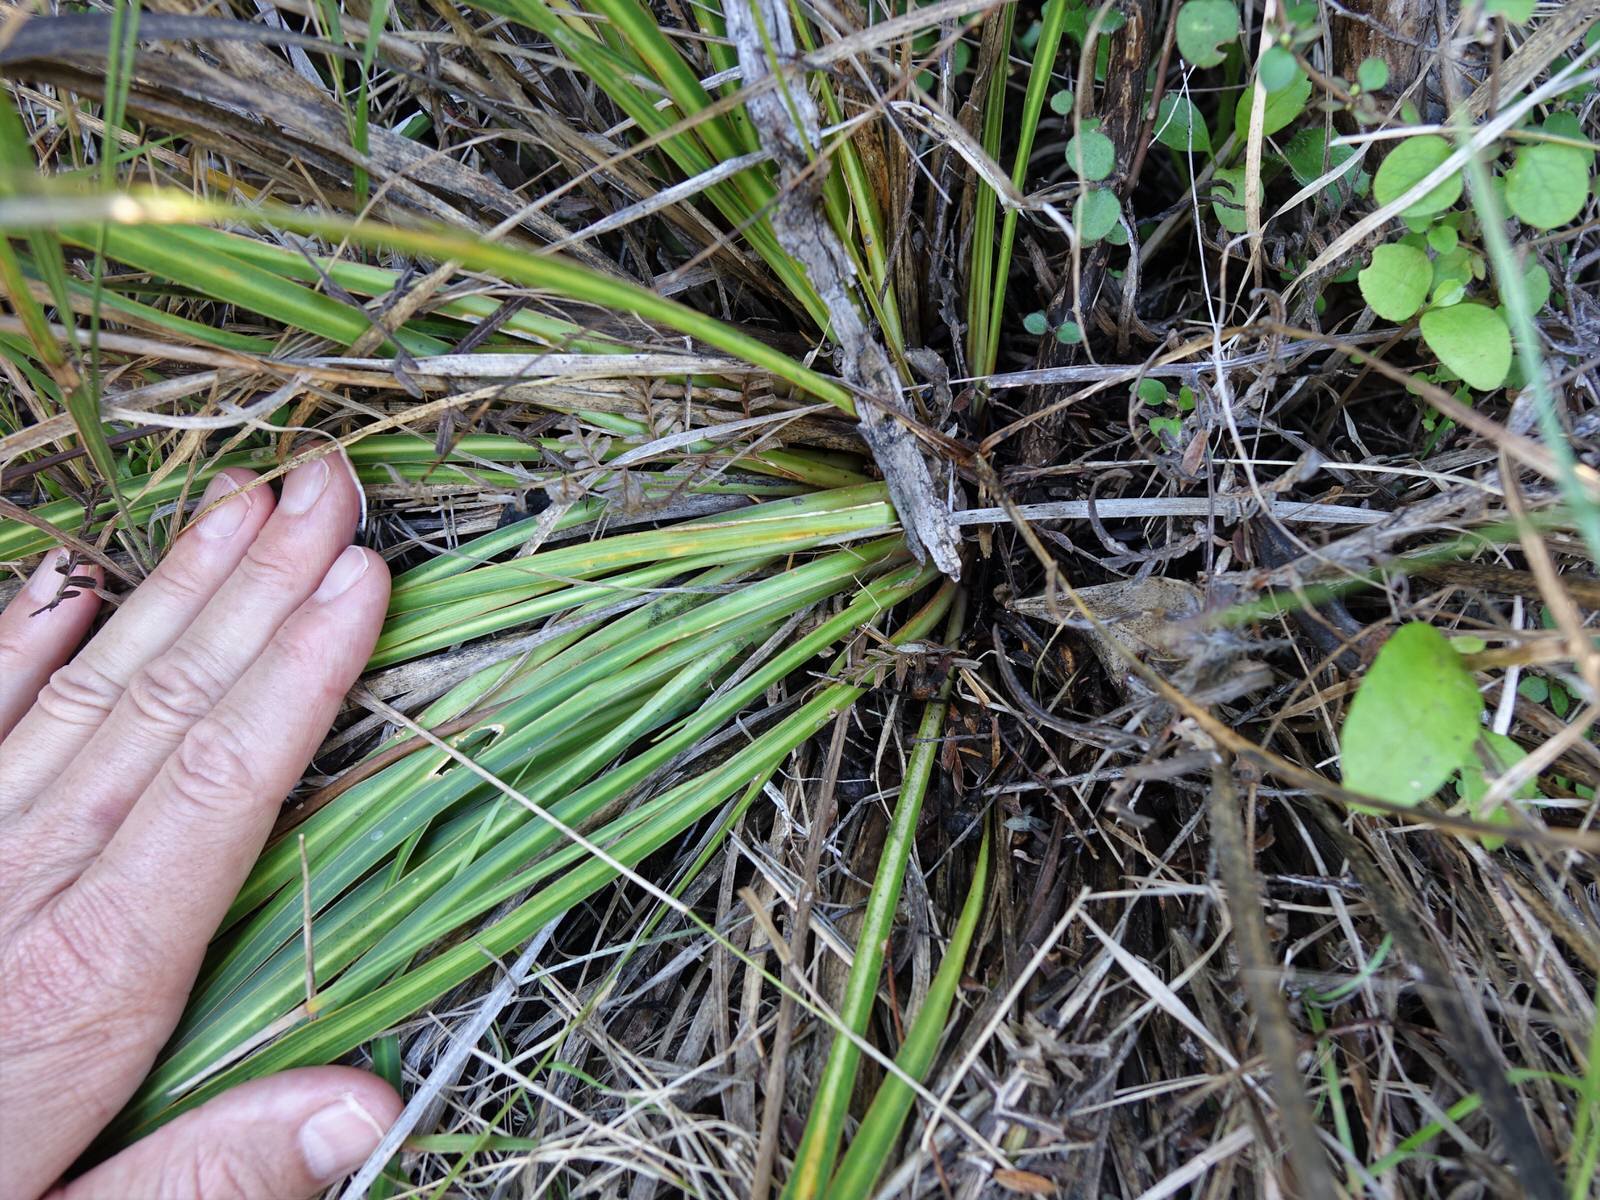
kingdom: Plantae
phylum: Tracheophyta
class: Liliopsida
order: Asparagales
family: Iridaceae
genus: Libertia
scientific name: Libertia grandiflora
